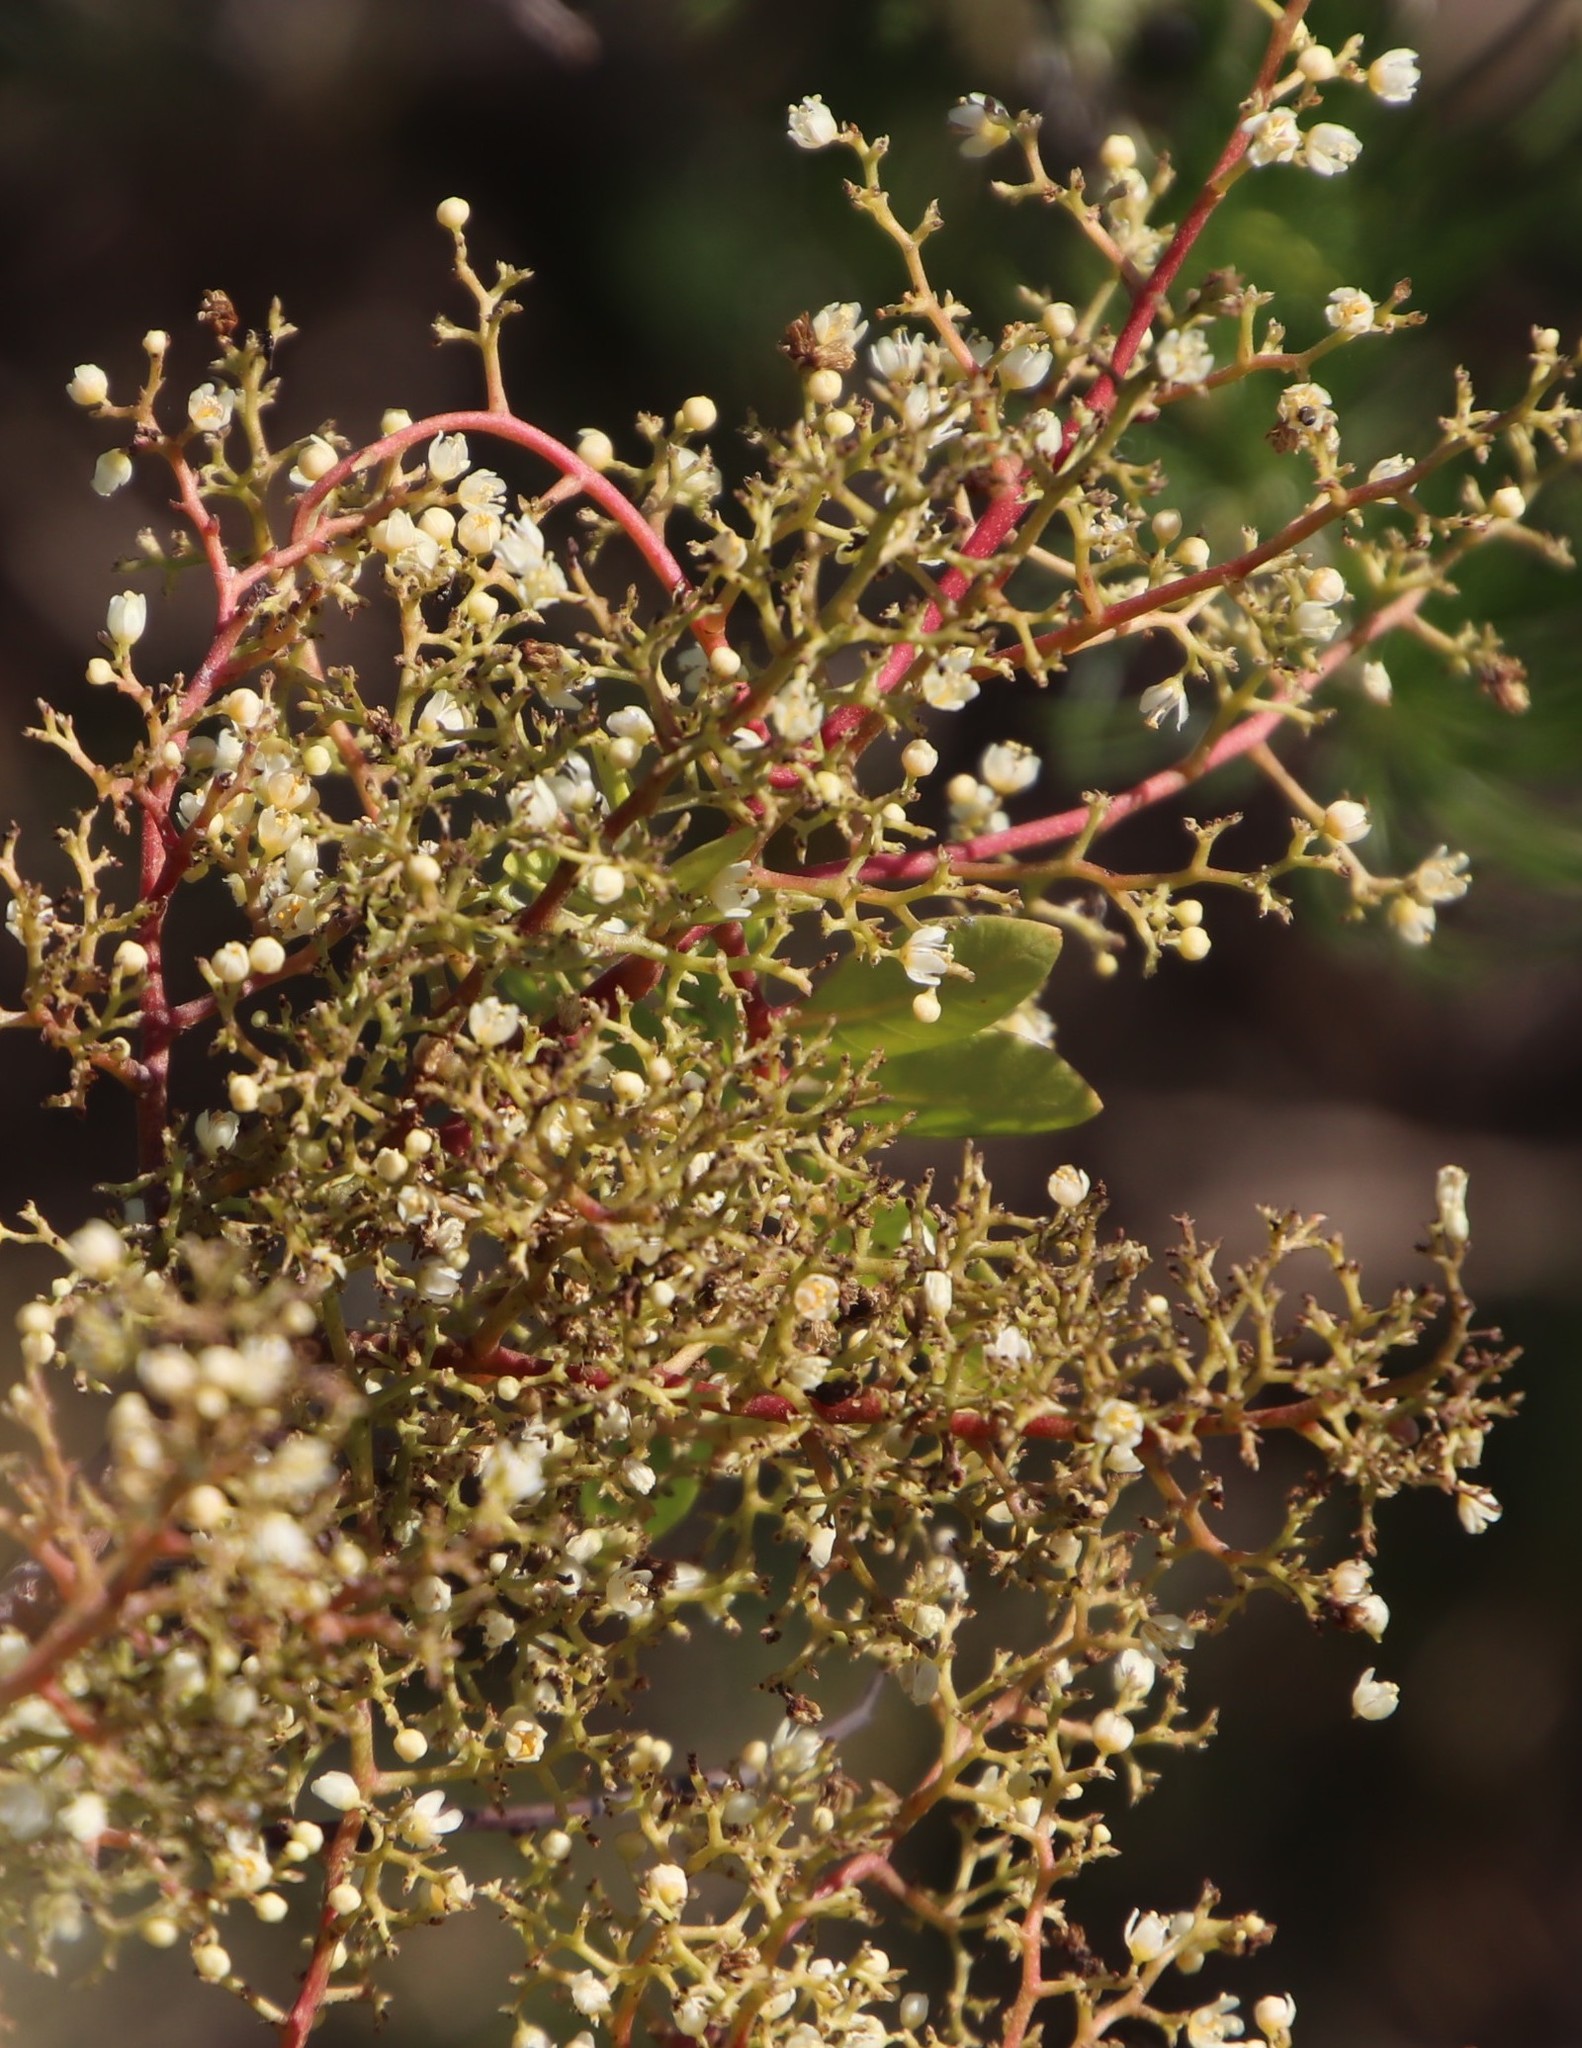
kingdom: Plantae
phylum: Tracheophyta
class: Magnoliopsida
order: Sapindales
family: Anacardiaceae
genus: Schinus
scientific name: Schinus terebinthifolia
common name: Brazilian peppertree
